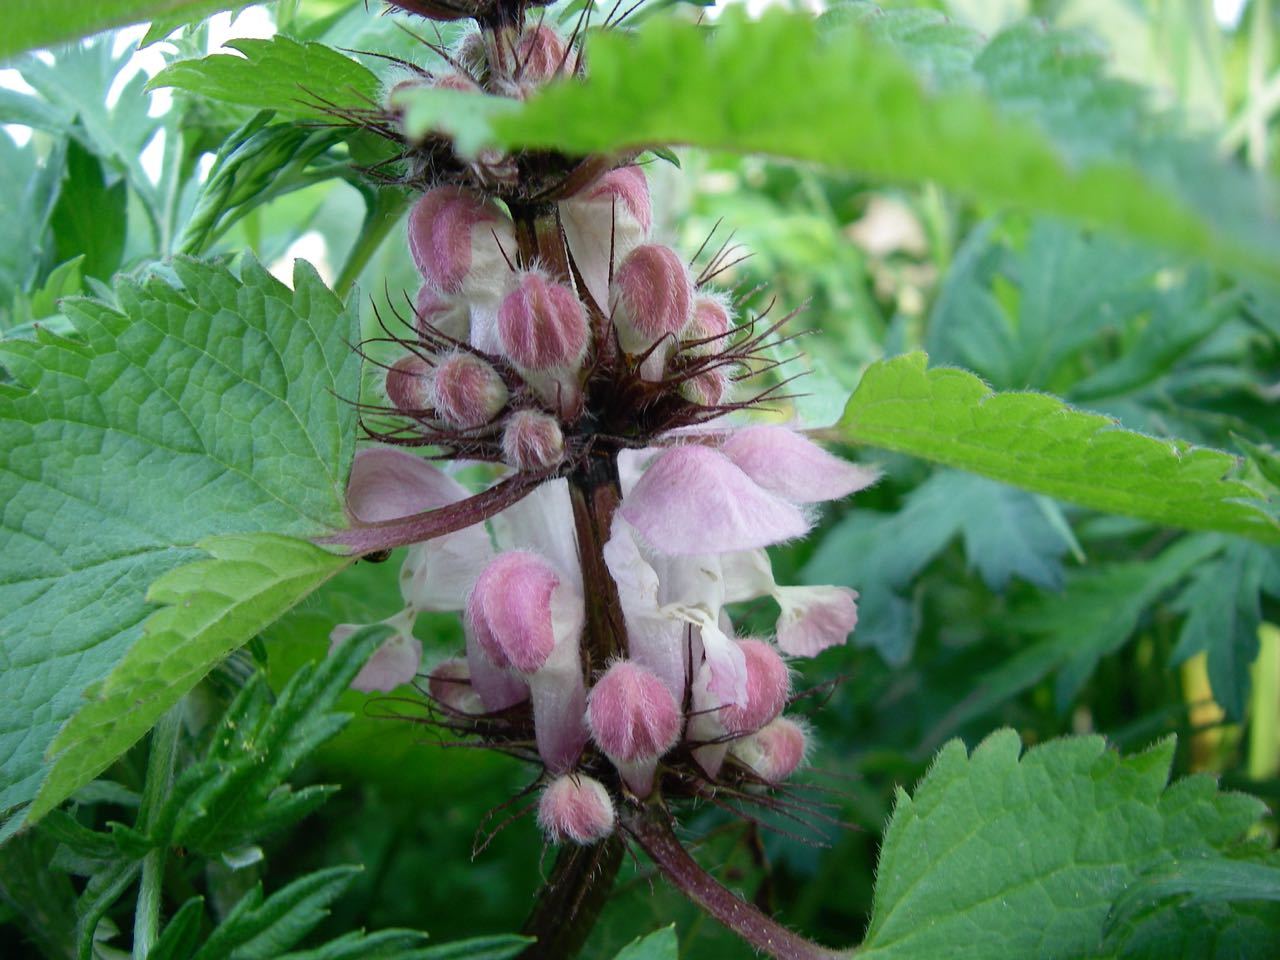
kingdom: Plantae
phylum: Tracheophyta
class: Magnoliopsida
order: Lamiales
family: Lamiaceae
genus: Lamium
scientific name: Lamium album
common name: White dead-nettle
